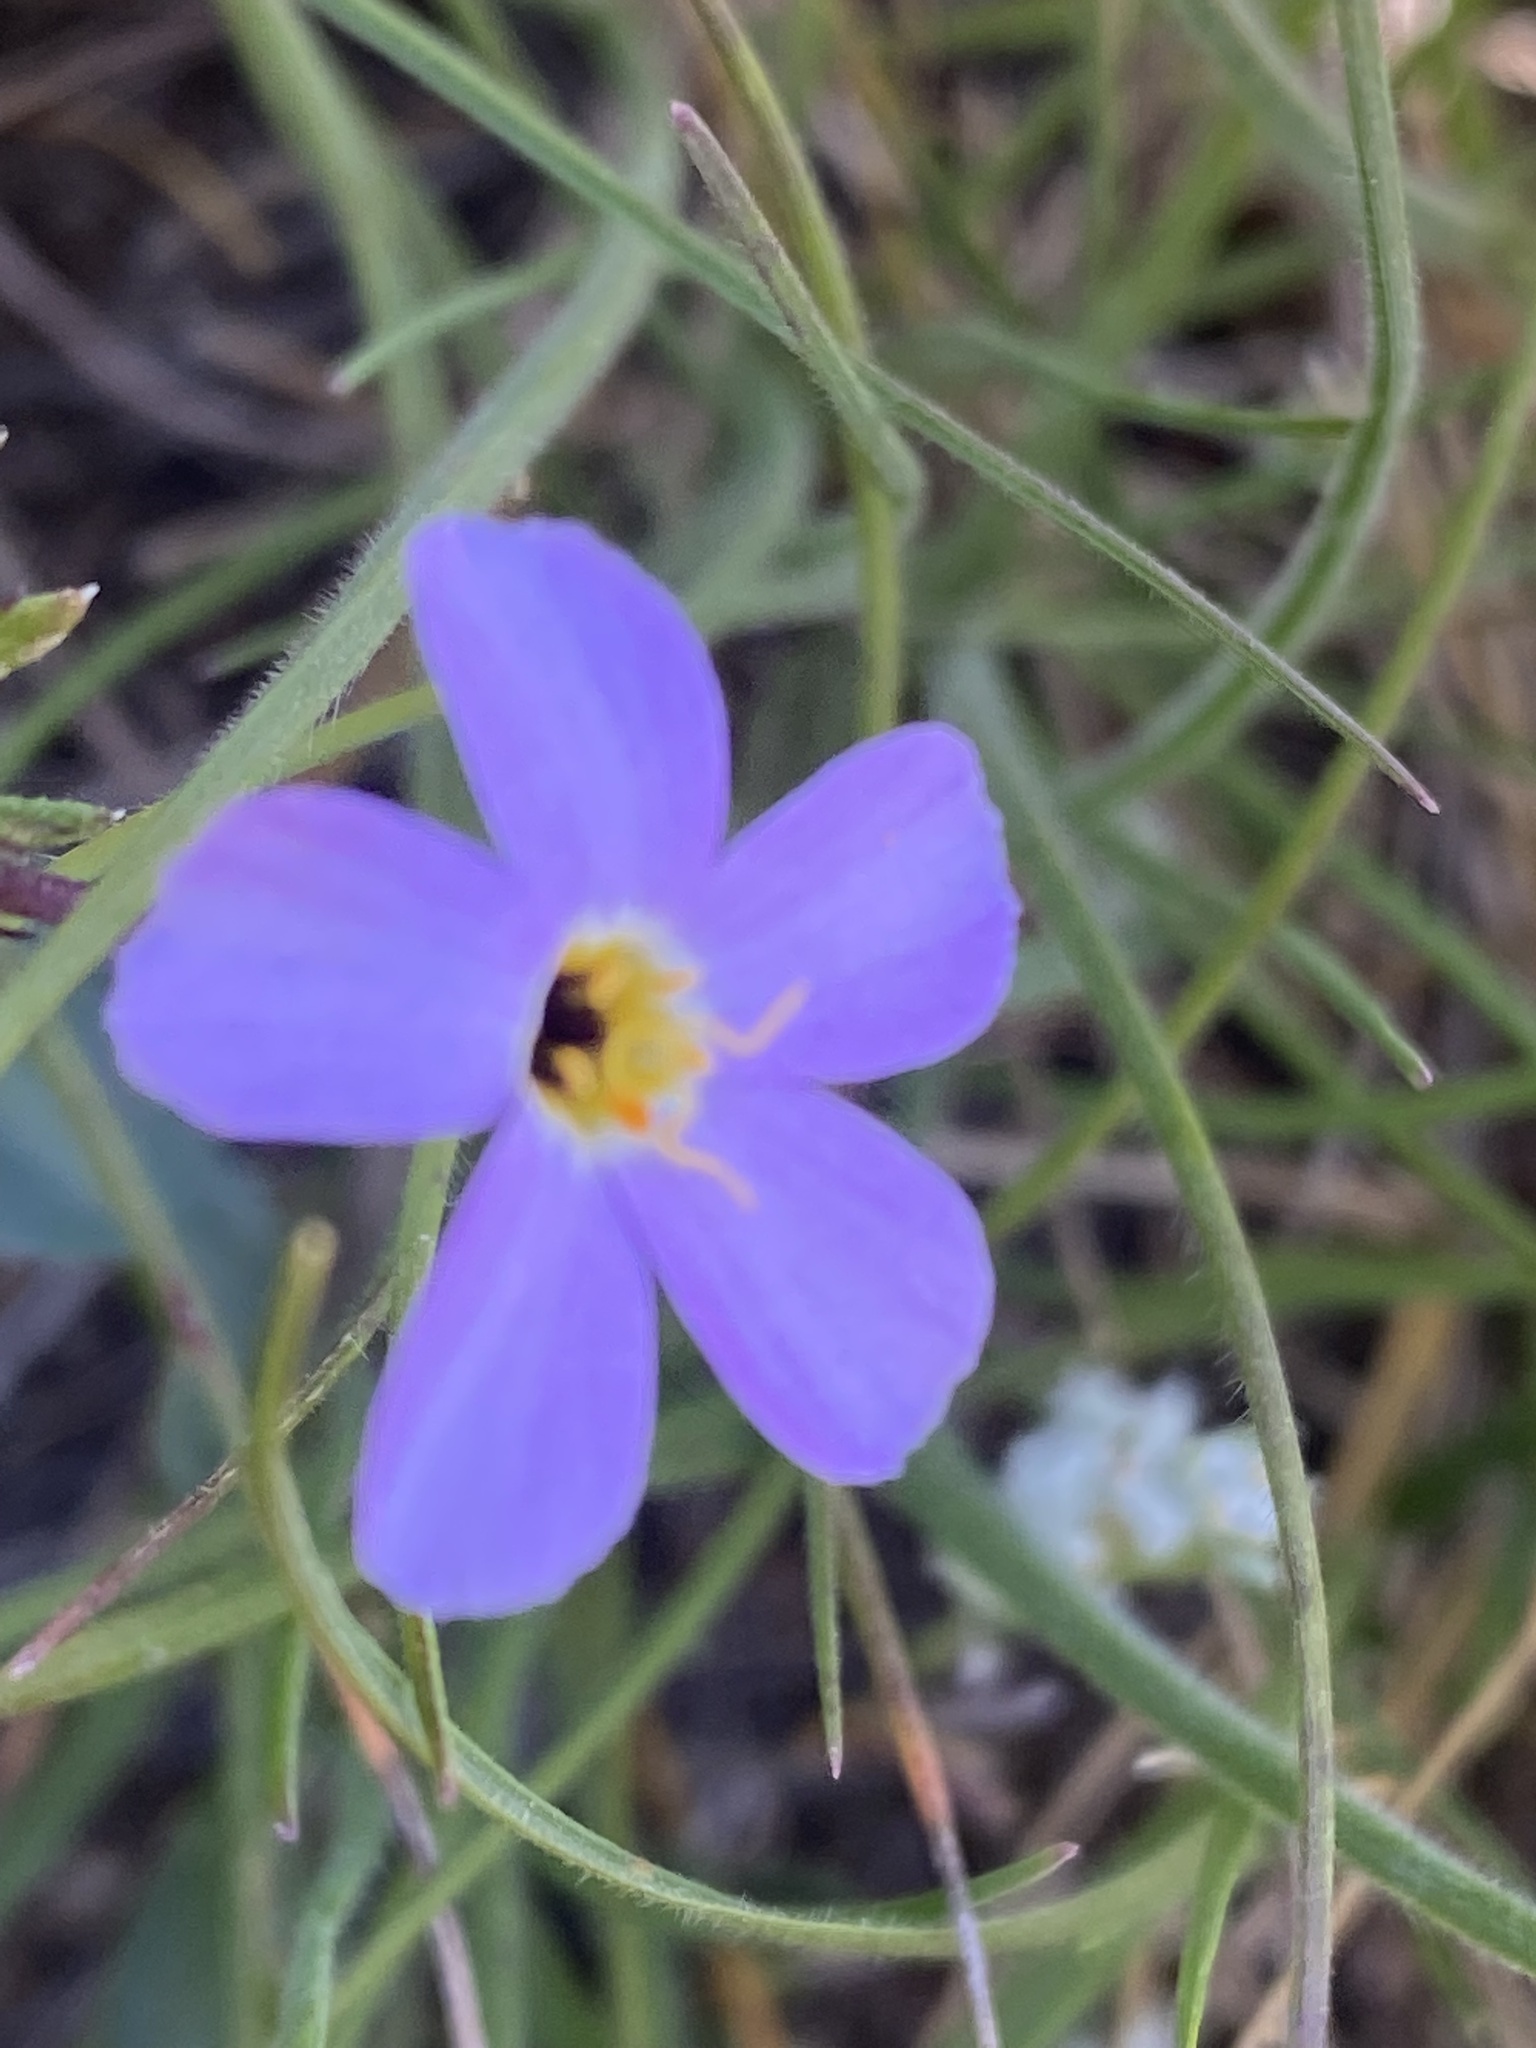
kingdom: Plantae
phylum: Tracheophyta
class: Magnoliopsida
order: Ericales
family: Polemoniaceae
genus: Leptosiphon
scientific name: Leptosiphon androsaceus
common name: False babystars
